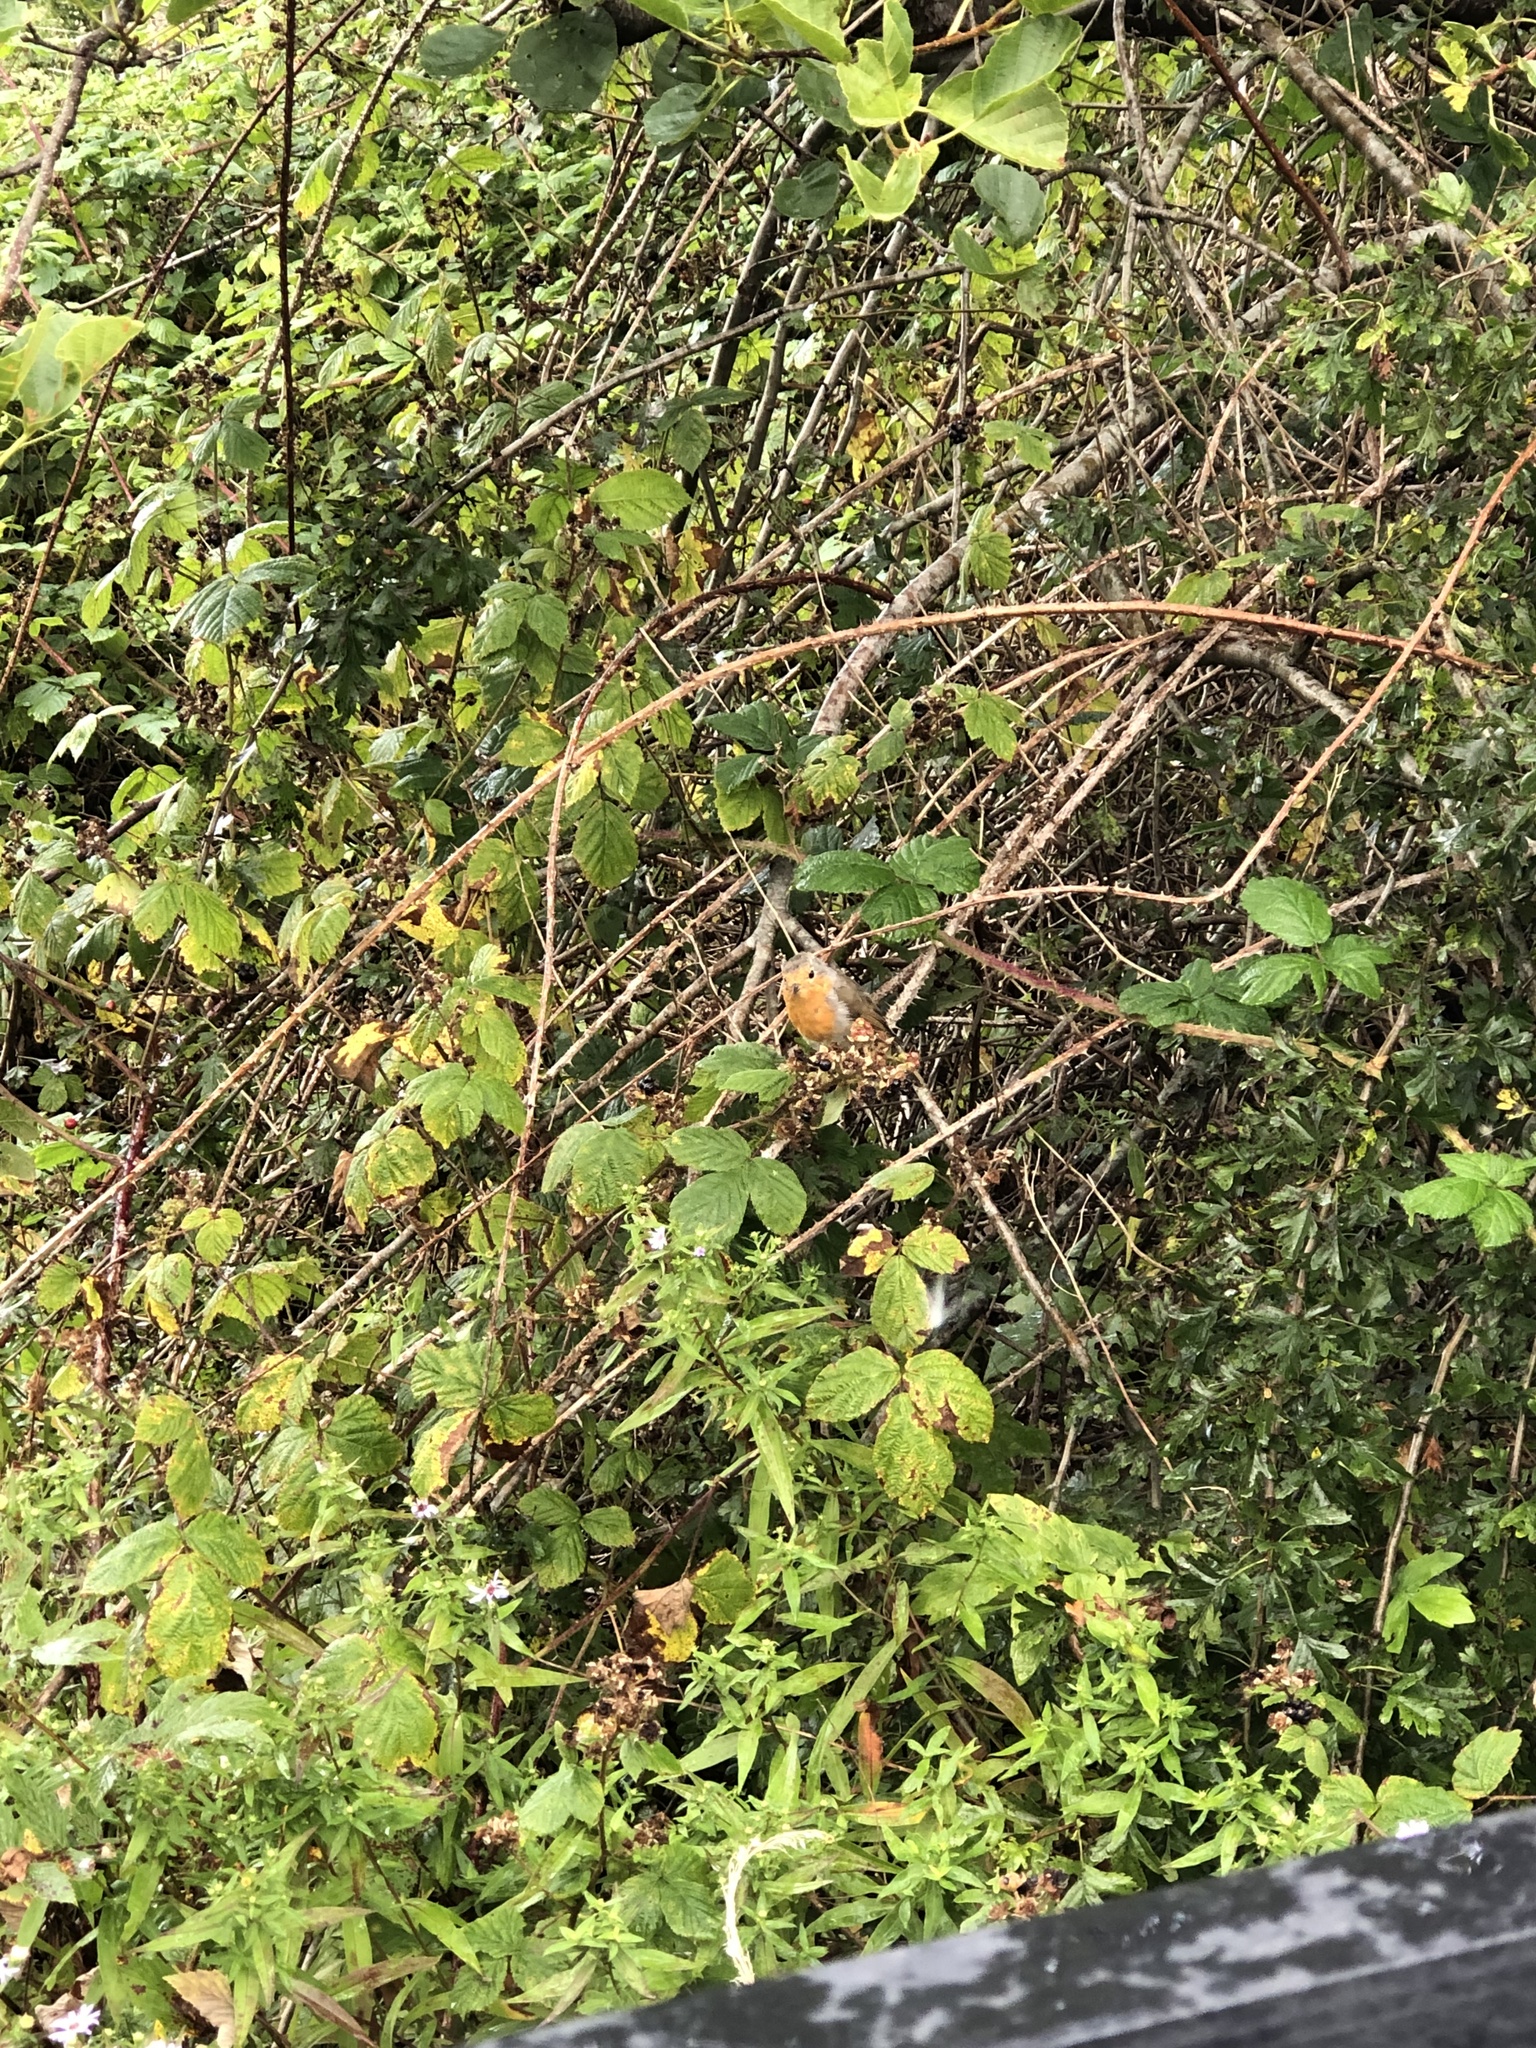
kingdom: Animalia
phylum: Chordata
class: Aves
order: Passeriformes
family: Muscicapidae
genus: Erithacus
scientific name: Erithacus rubecula
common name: European robin
